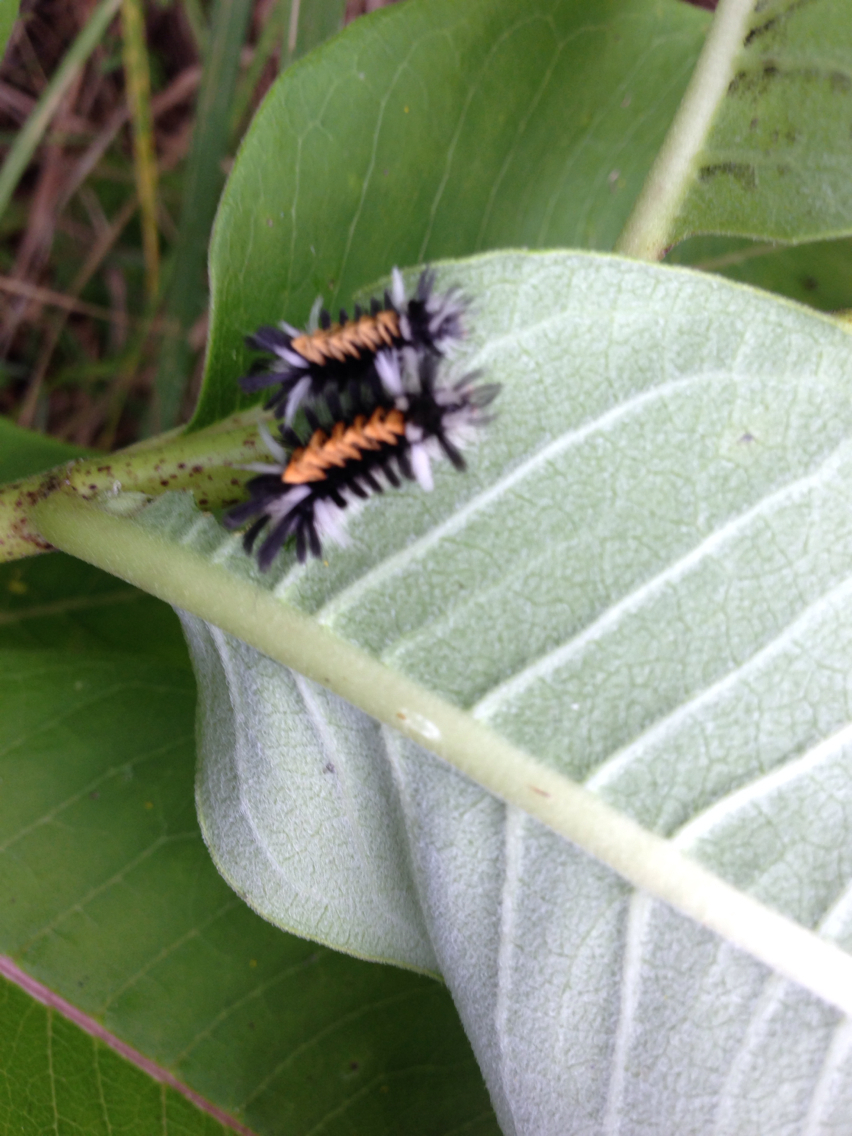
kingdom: Animalia
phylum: Arthropoda
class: Insecta
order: Lepidoptera
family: Erebidae
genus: Euchaetes
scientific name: Euchaetes egle
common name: Milkweed tussock moth
